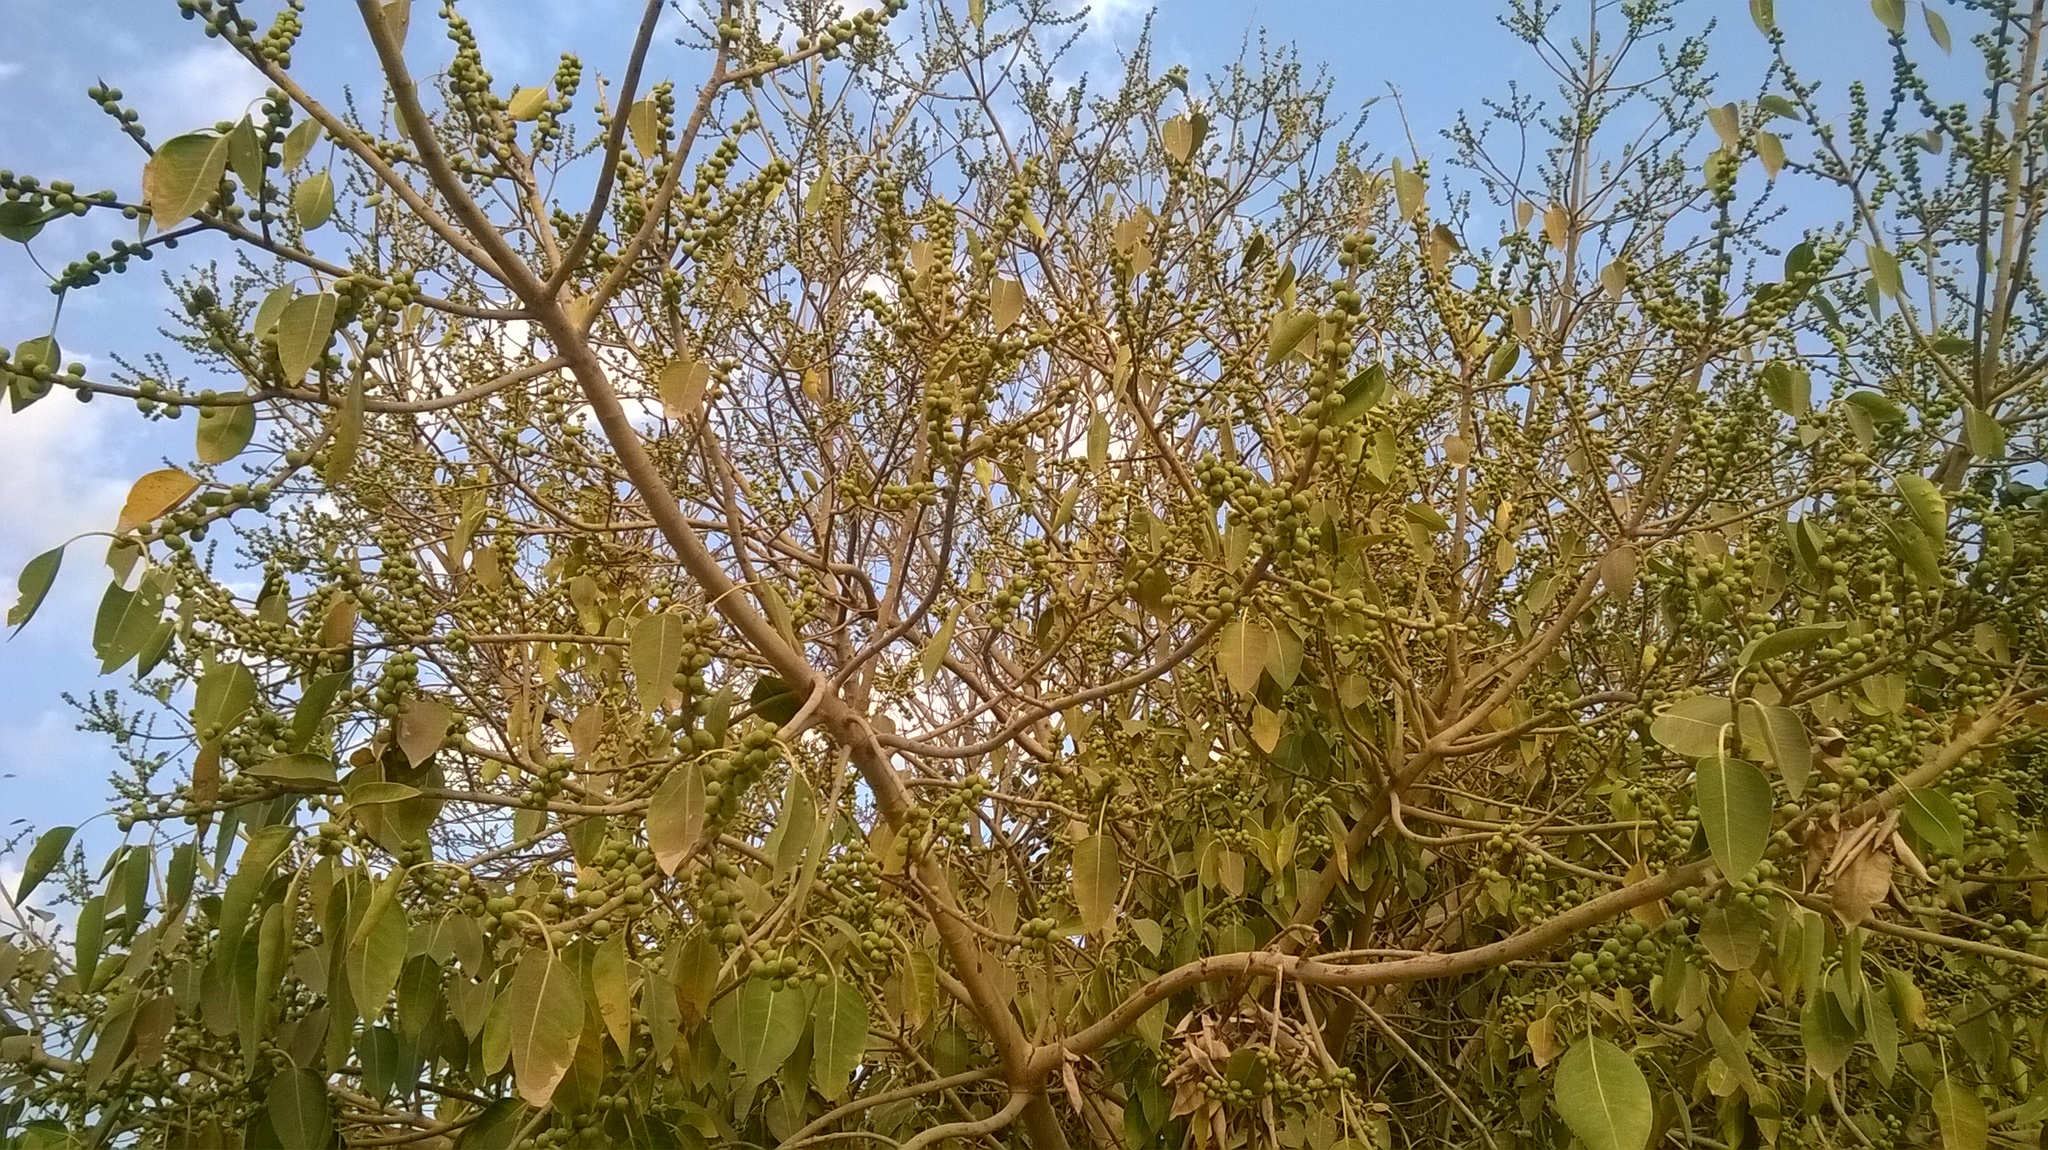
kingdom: Plantae
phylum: Tracheophyta
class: Magnoliopsida
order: Rosales
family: Moraceae
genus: Ficus
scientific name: Ficus amplissima
